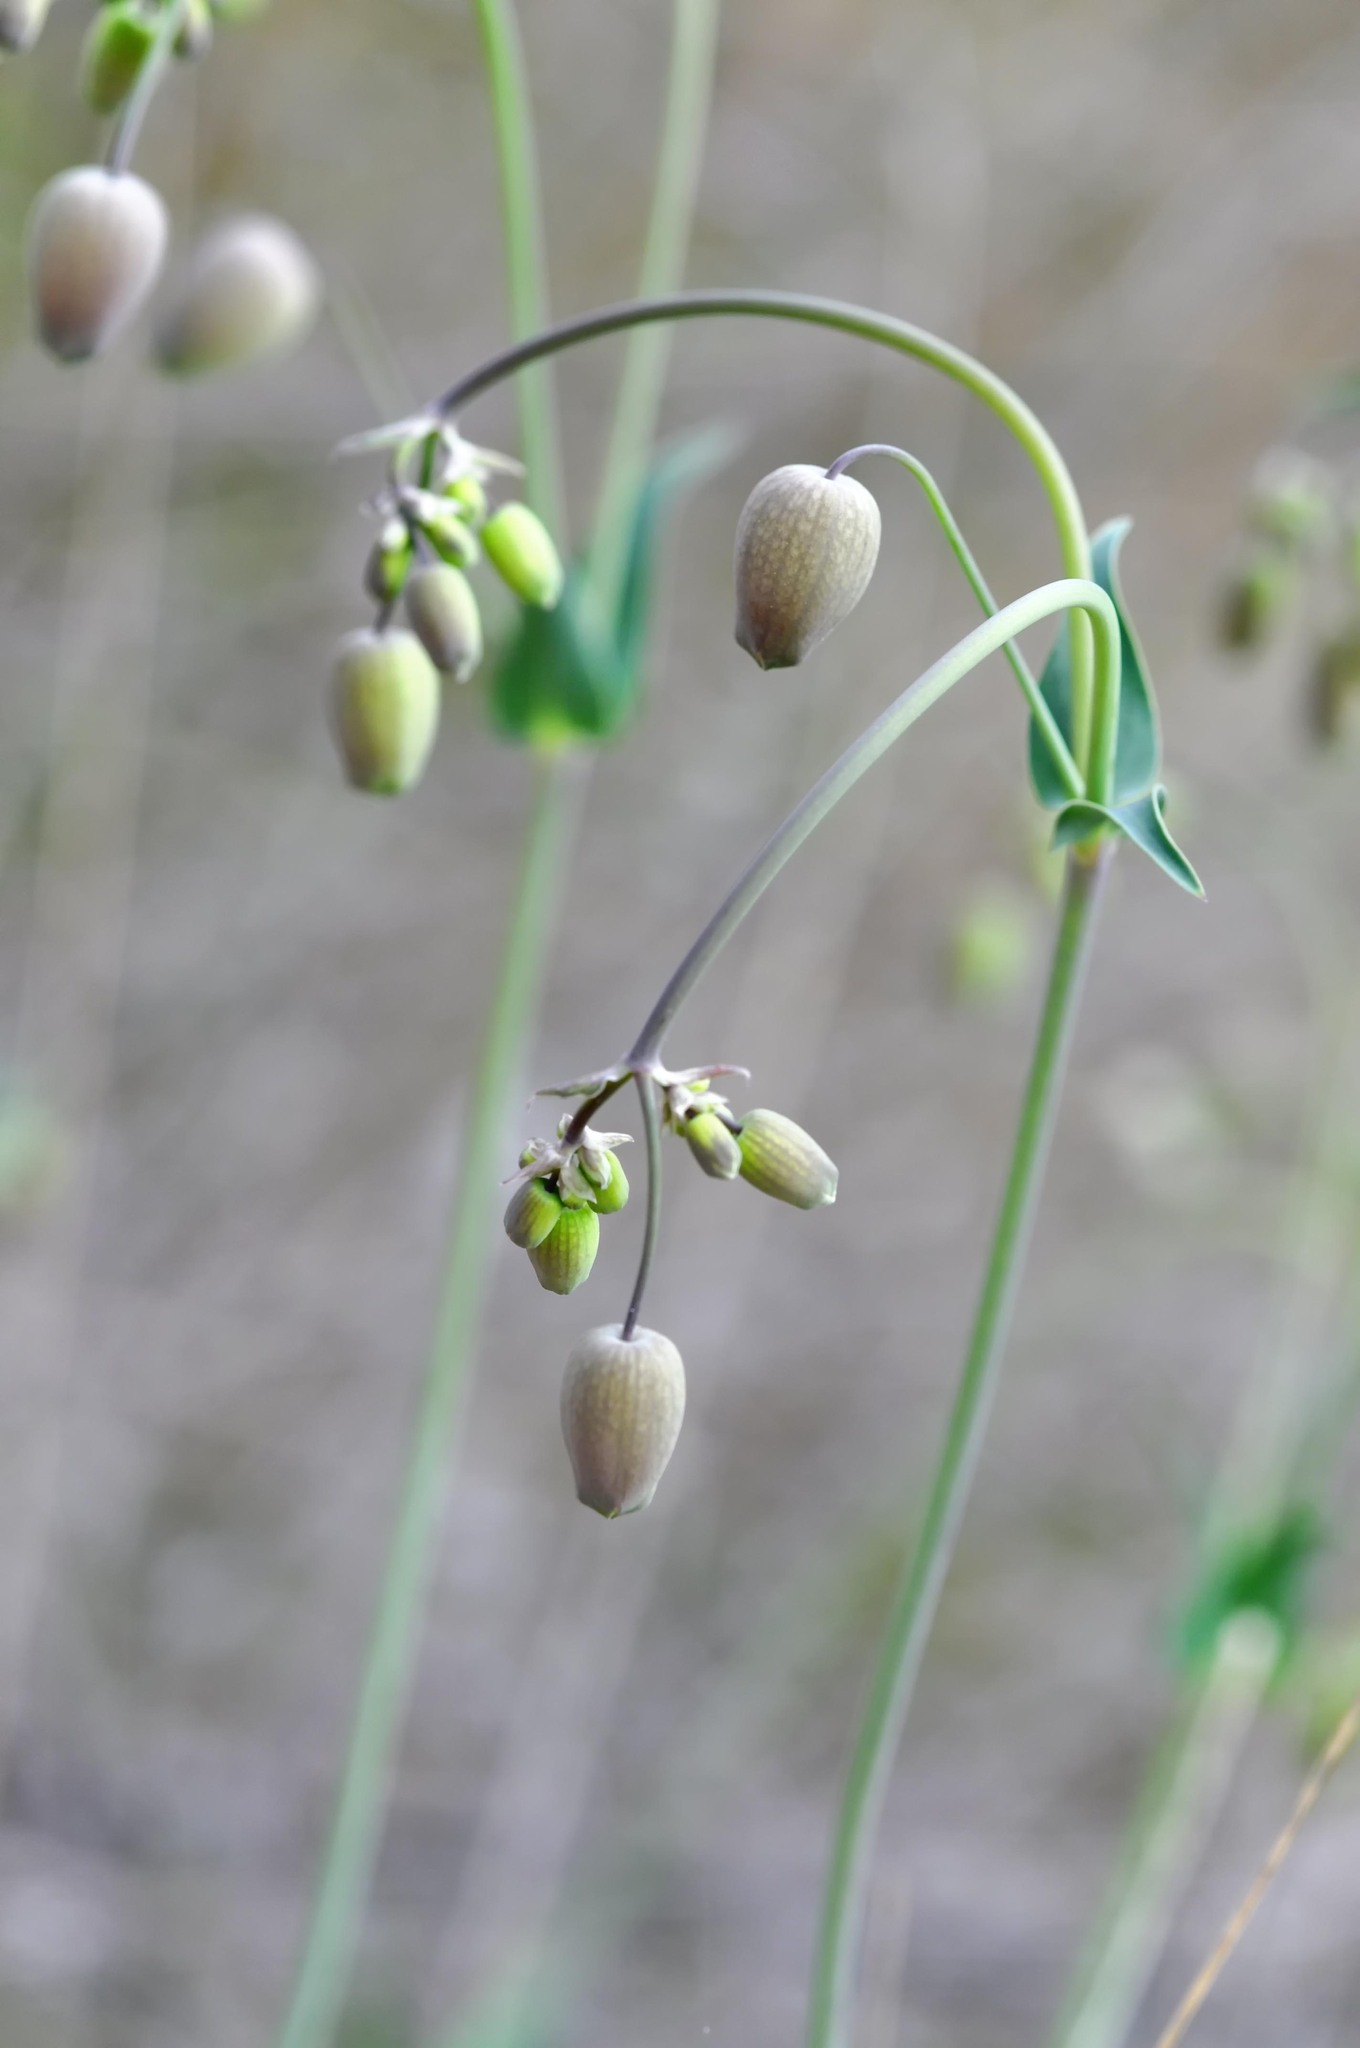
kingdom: Plantae
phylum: Tracheophyta
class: Magnoliopsida
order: Caryophyllales
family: Caryophyllaceae
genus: Silene
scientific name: Silene vulgaris
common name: Bladder campion
